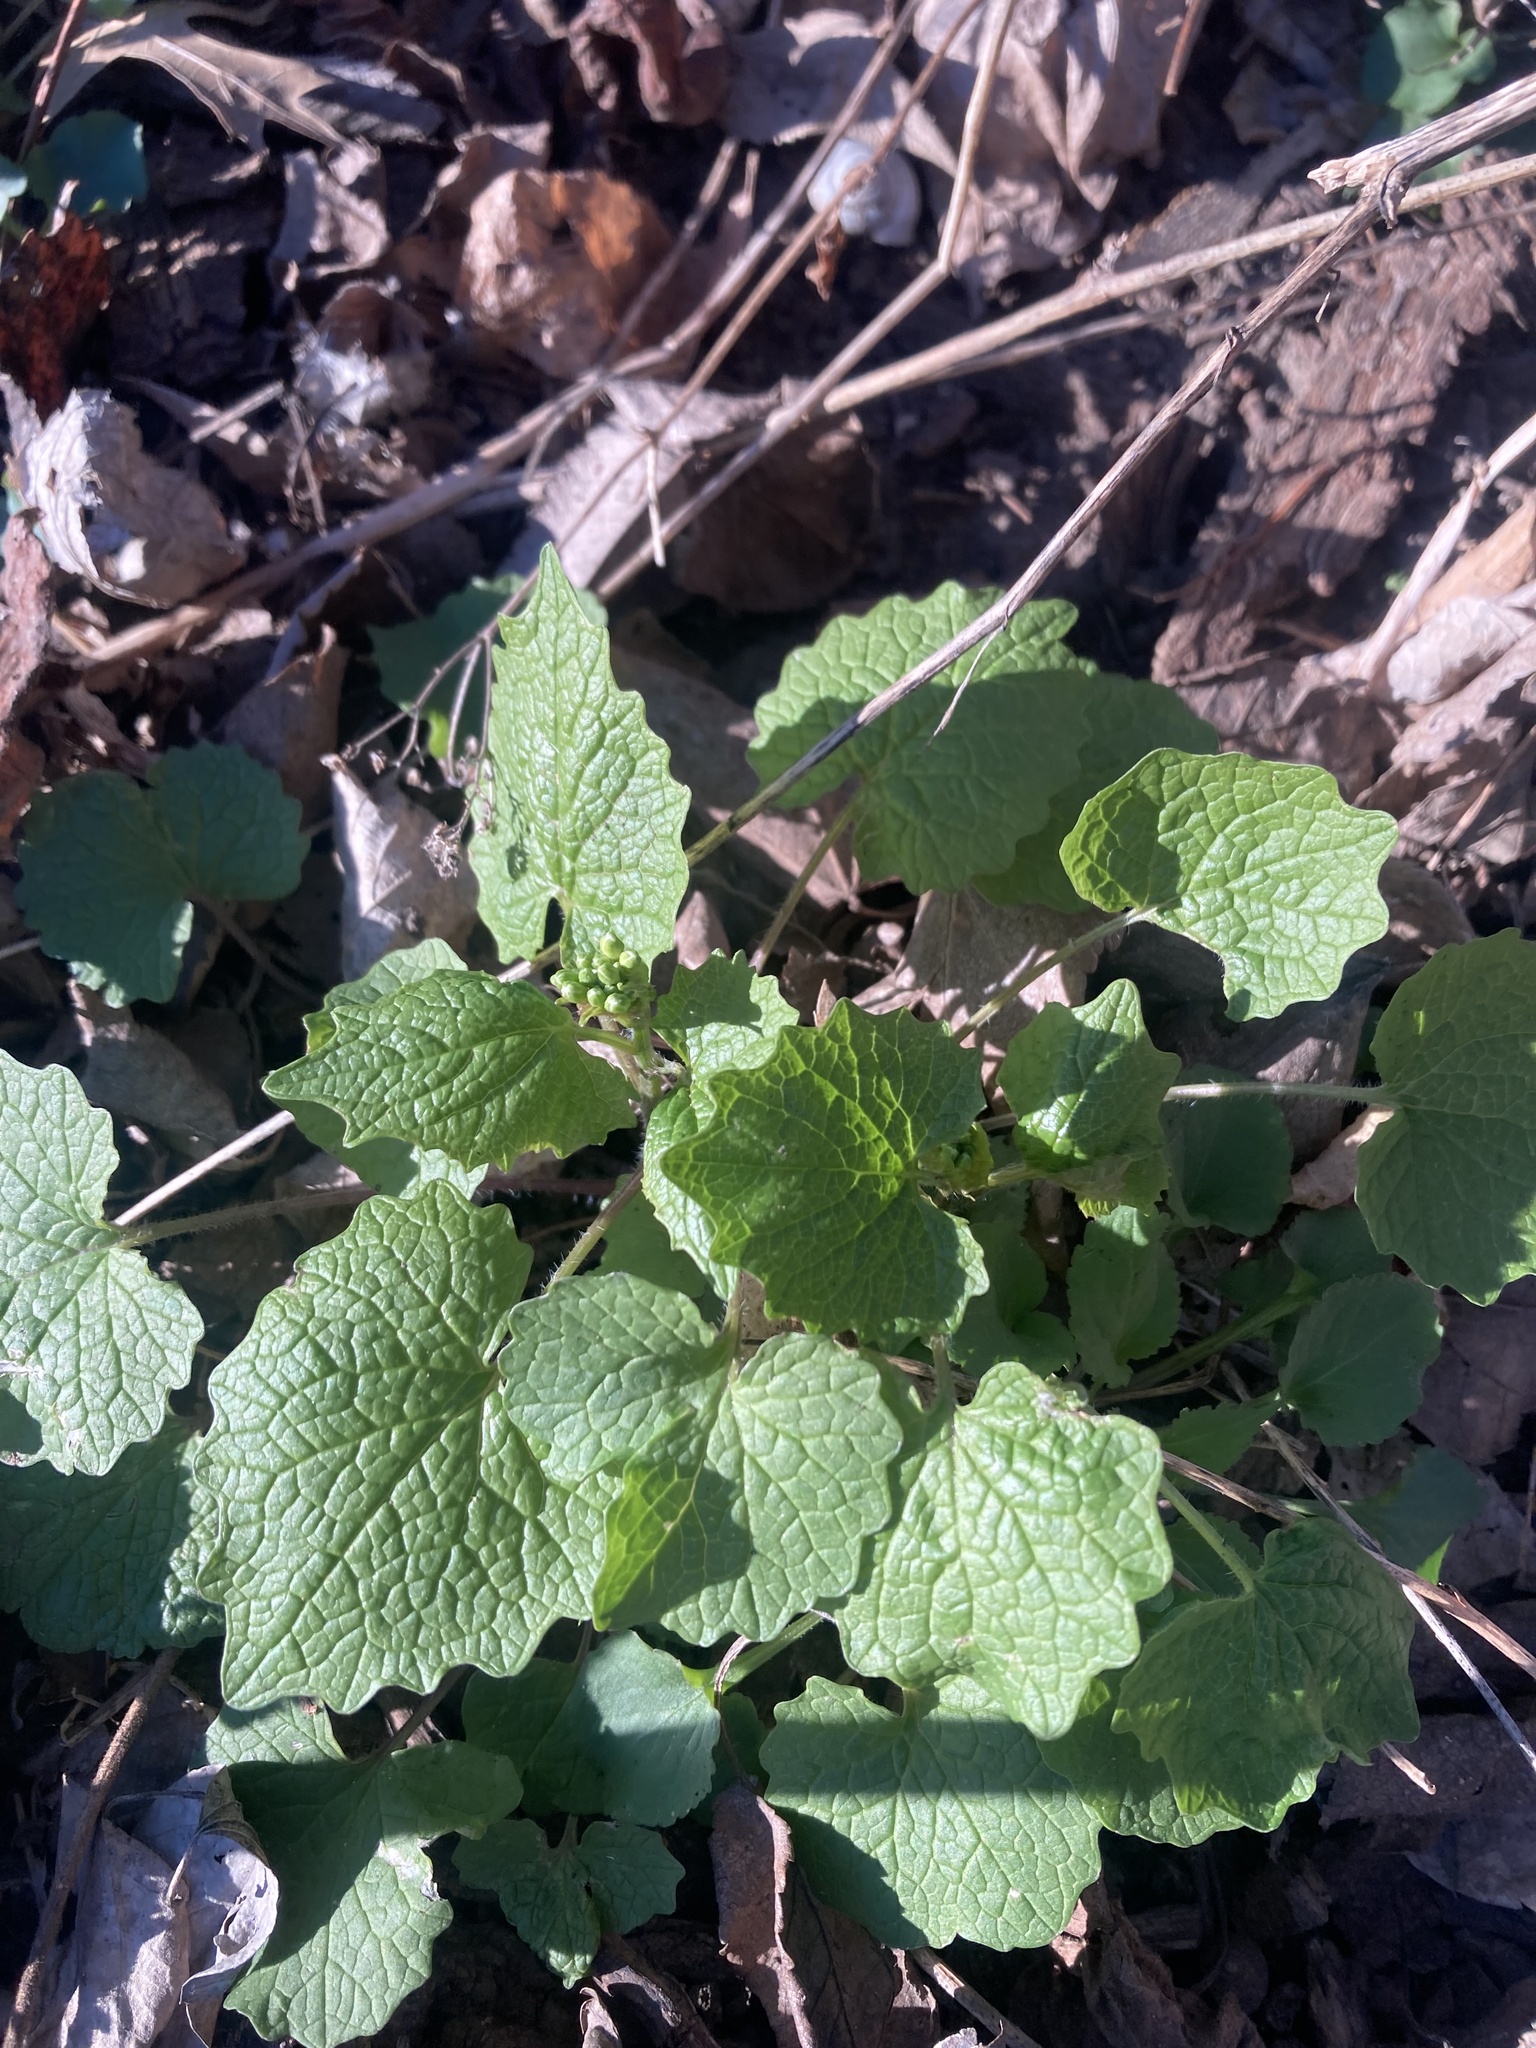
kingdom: Plantae
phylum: Tracheophyta
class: Magnoliopsida
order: Brassicales
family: Brassicaceae
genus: Alliaria
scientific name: Alliaria petiolata
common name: Garlic mustard
